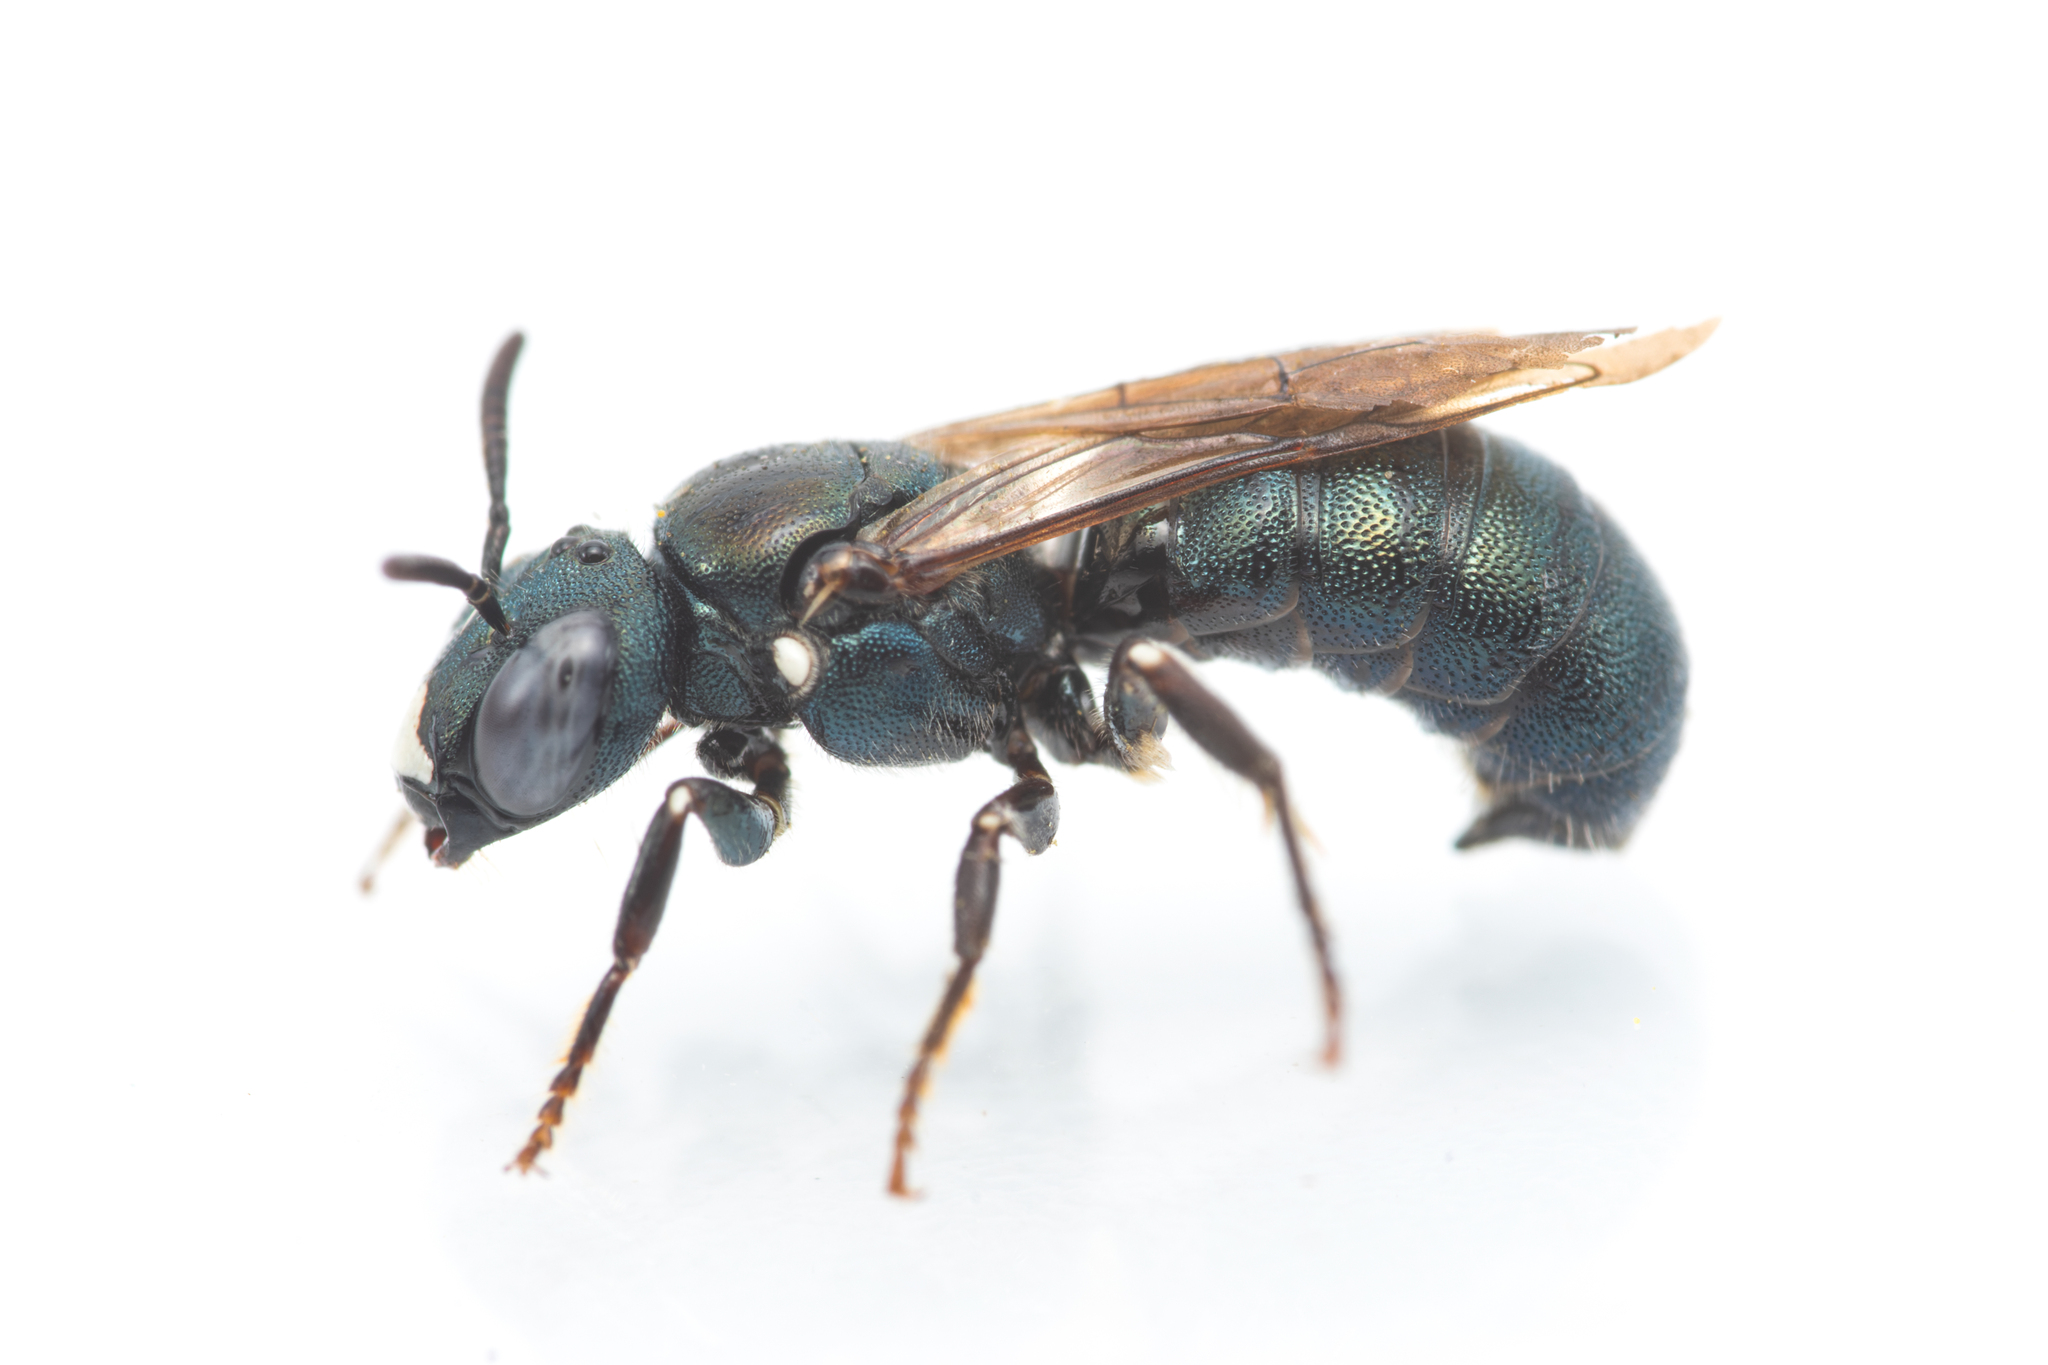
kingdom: Animalia
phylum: Arthropoda
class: Insecta
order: Hymenoptera
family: Apidae
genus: Ceratina
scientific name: Ceratina chalcites
